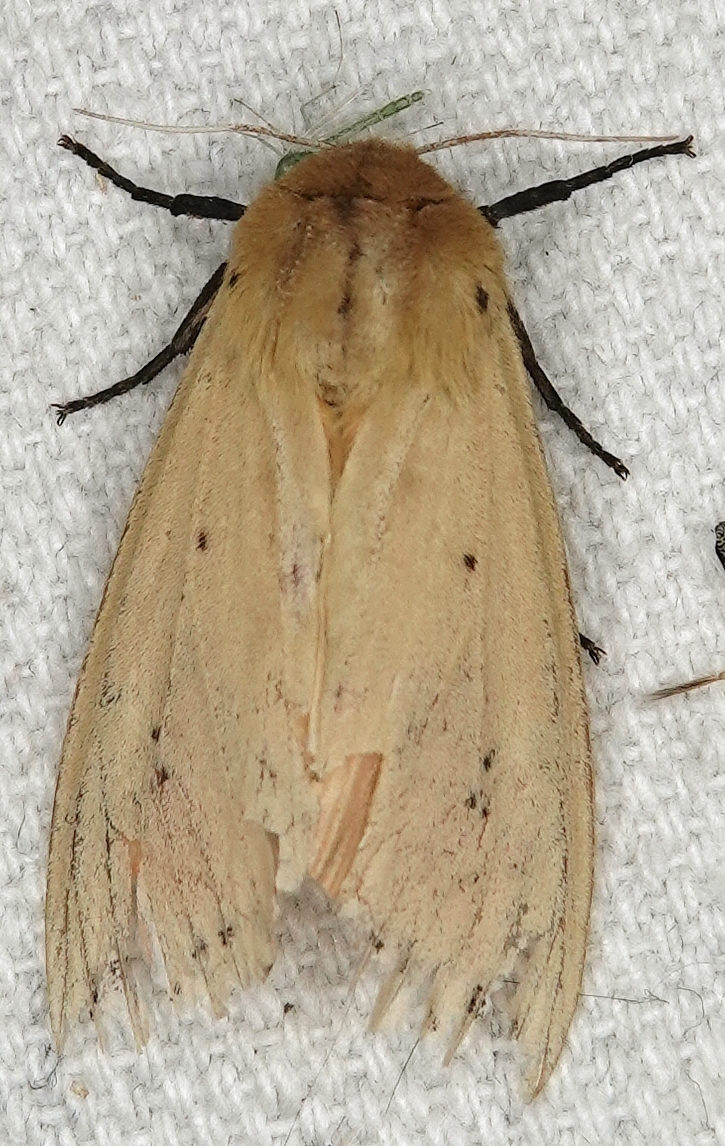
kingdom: Animalia
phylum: Arthropoda
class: Insecta
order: Lepidoptera
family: Erebidae
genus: Pyrrharctia
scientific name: Pyrrharctia isabella
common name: Isabella tiger moth
